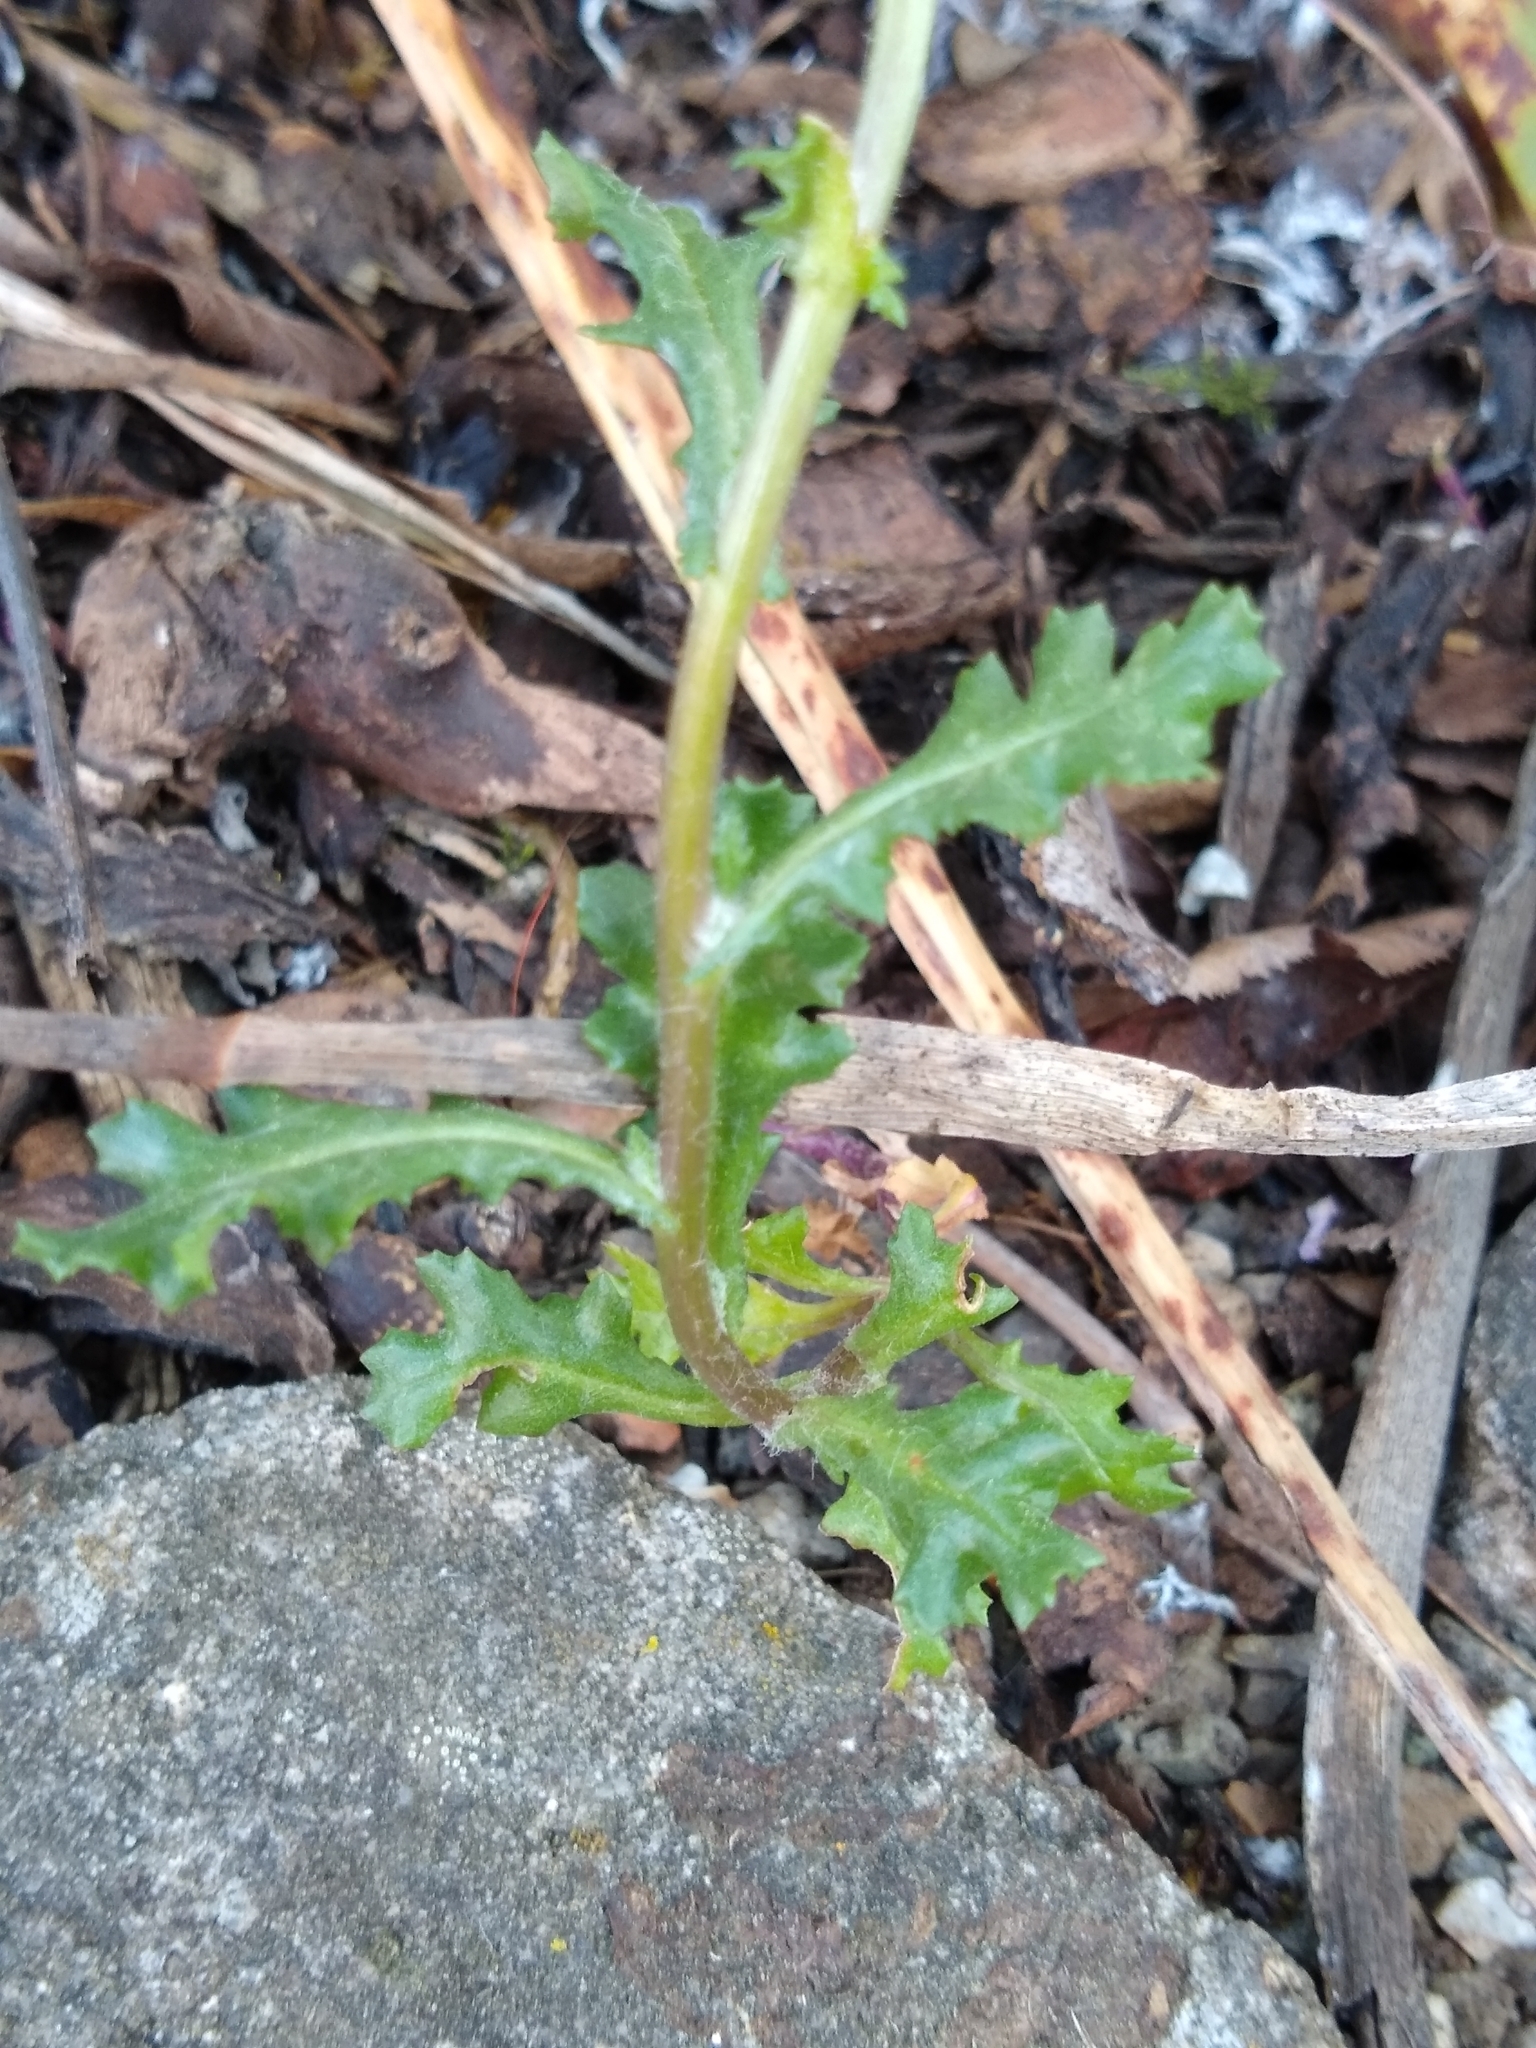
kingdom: Plantae
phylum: Tracheophyta
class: Magnoliopsida
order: Asterales
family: Asteraceae
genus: Senecio
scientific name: Senecio vulgaris
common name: Old-man-in-the-spring
